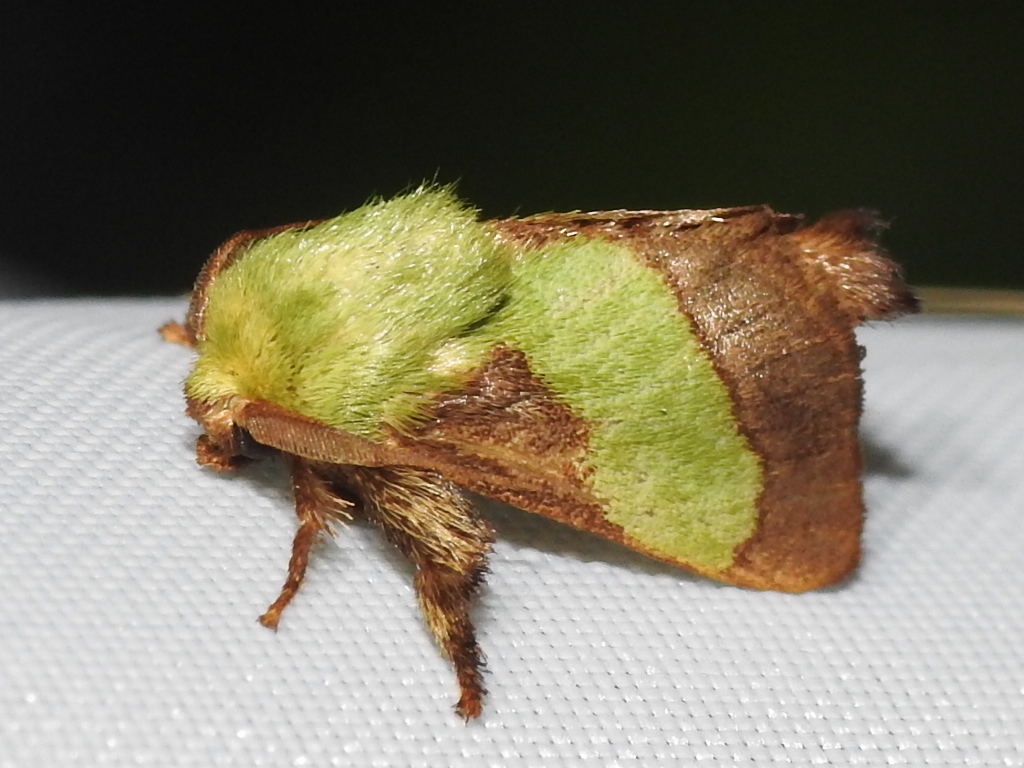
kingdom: Animalia
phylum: Arthropoda
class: Insecta
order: Lepidoptera
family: Limacodidae
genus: Parasa
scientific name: Parasa chloris
